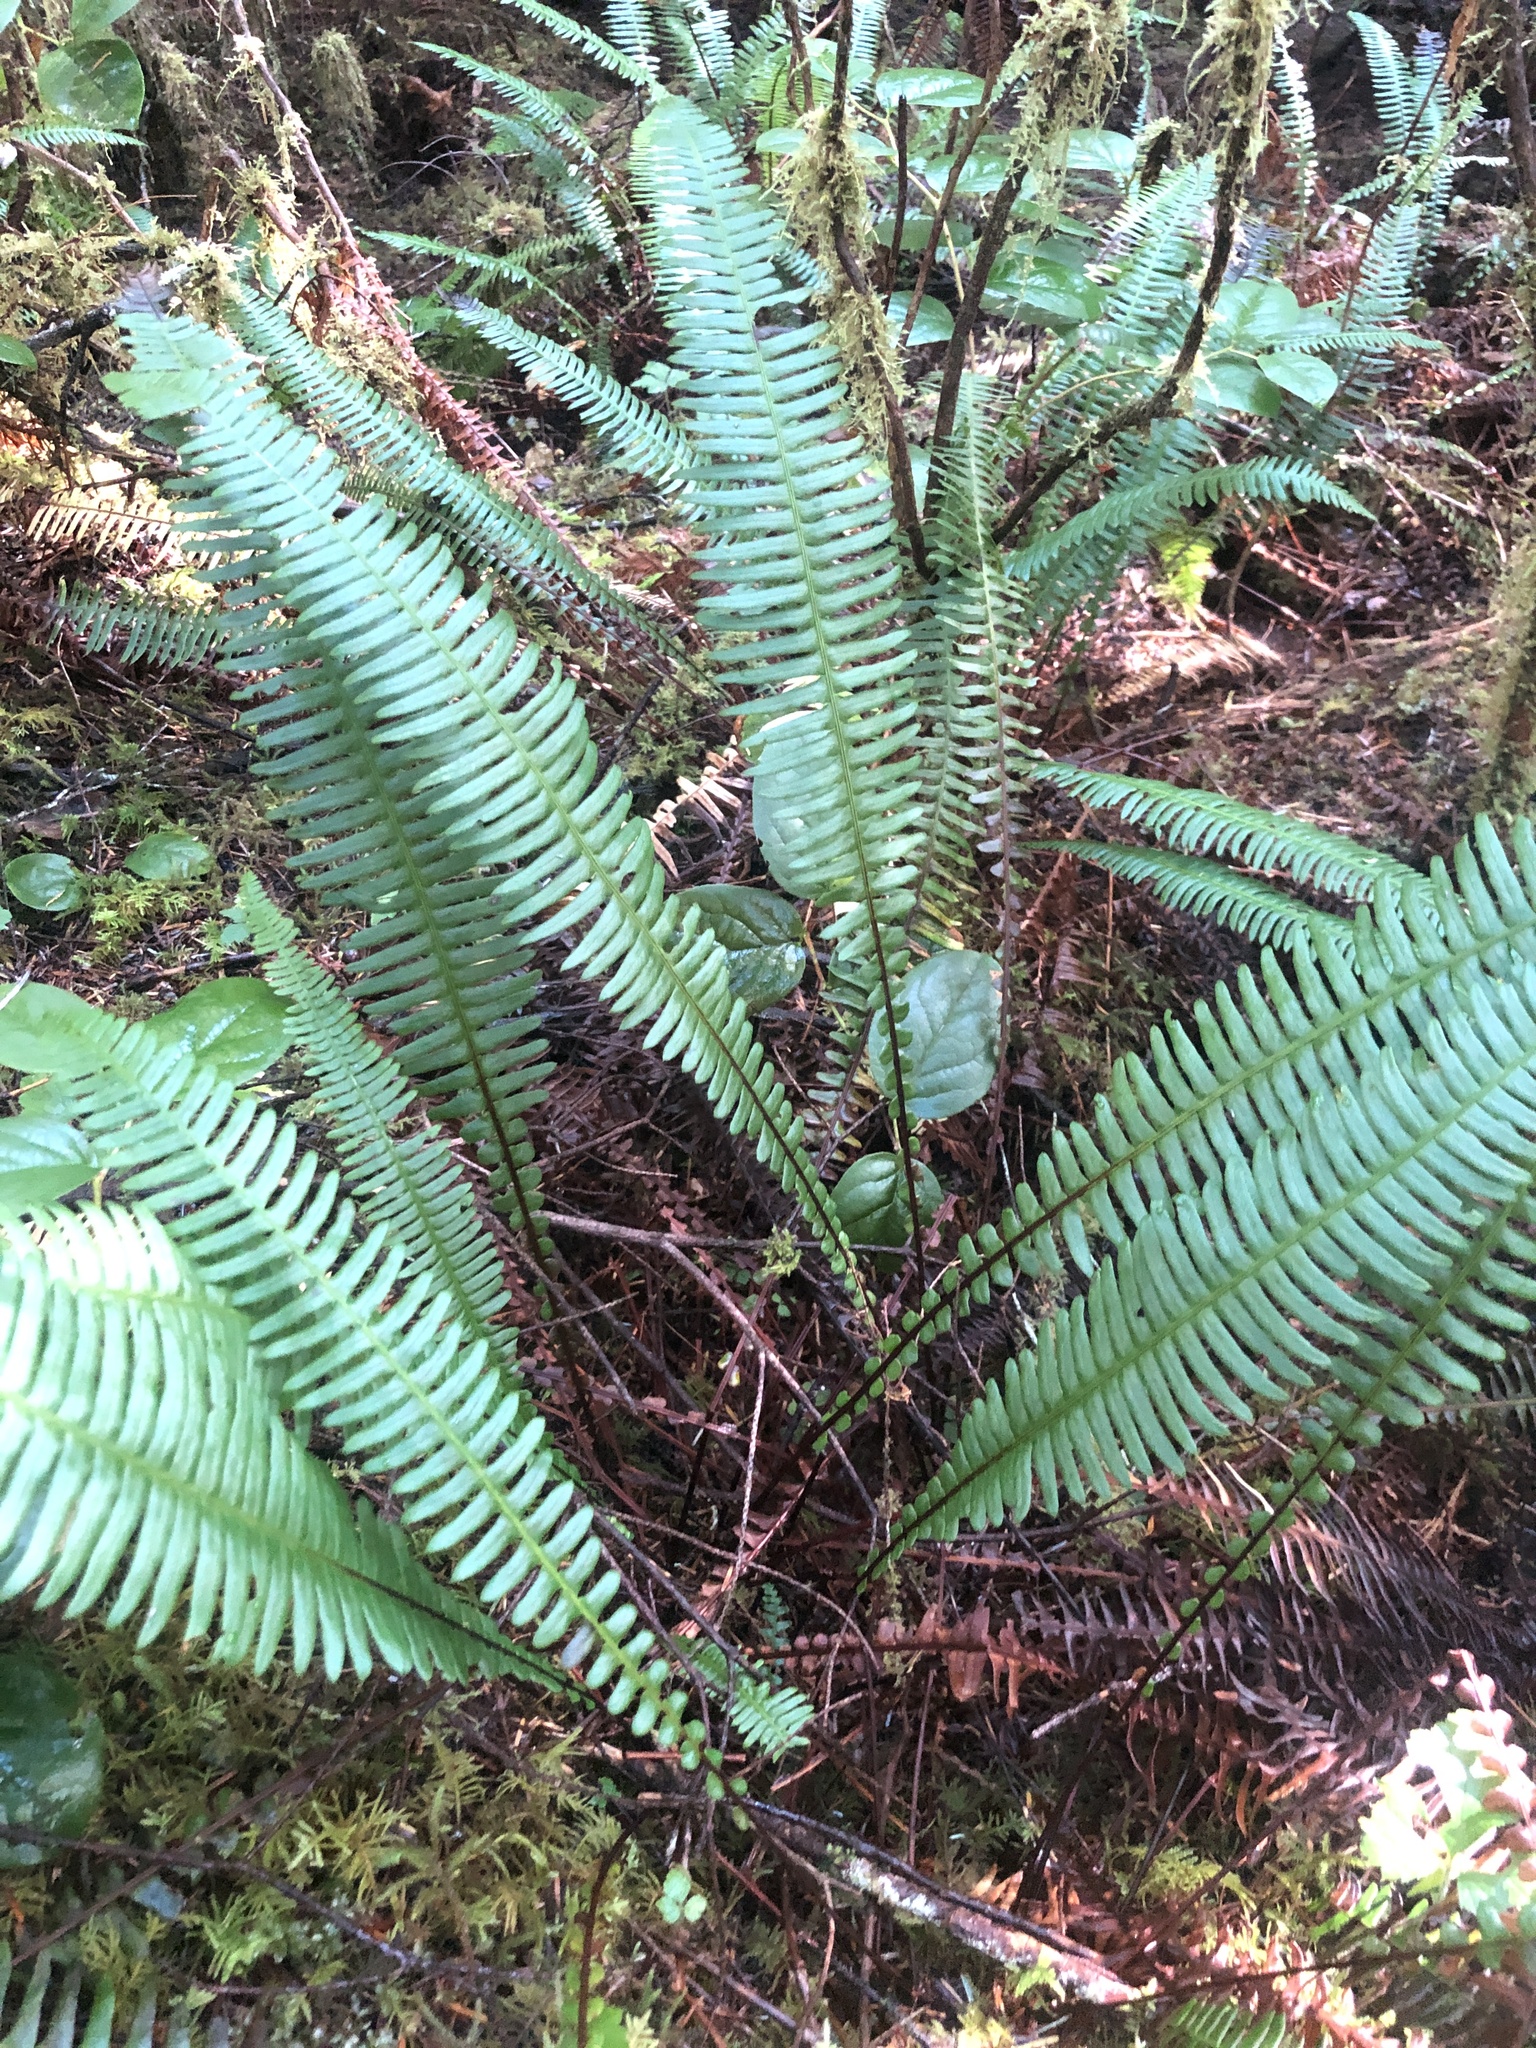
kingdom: Plantae
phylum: Tracheophyta
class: Polypodiopsida
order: Polypodiales
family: Blechnaceae
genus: Struthiopteris
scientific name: Struthiopteris spicant
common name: Deer fern
